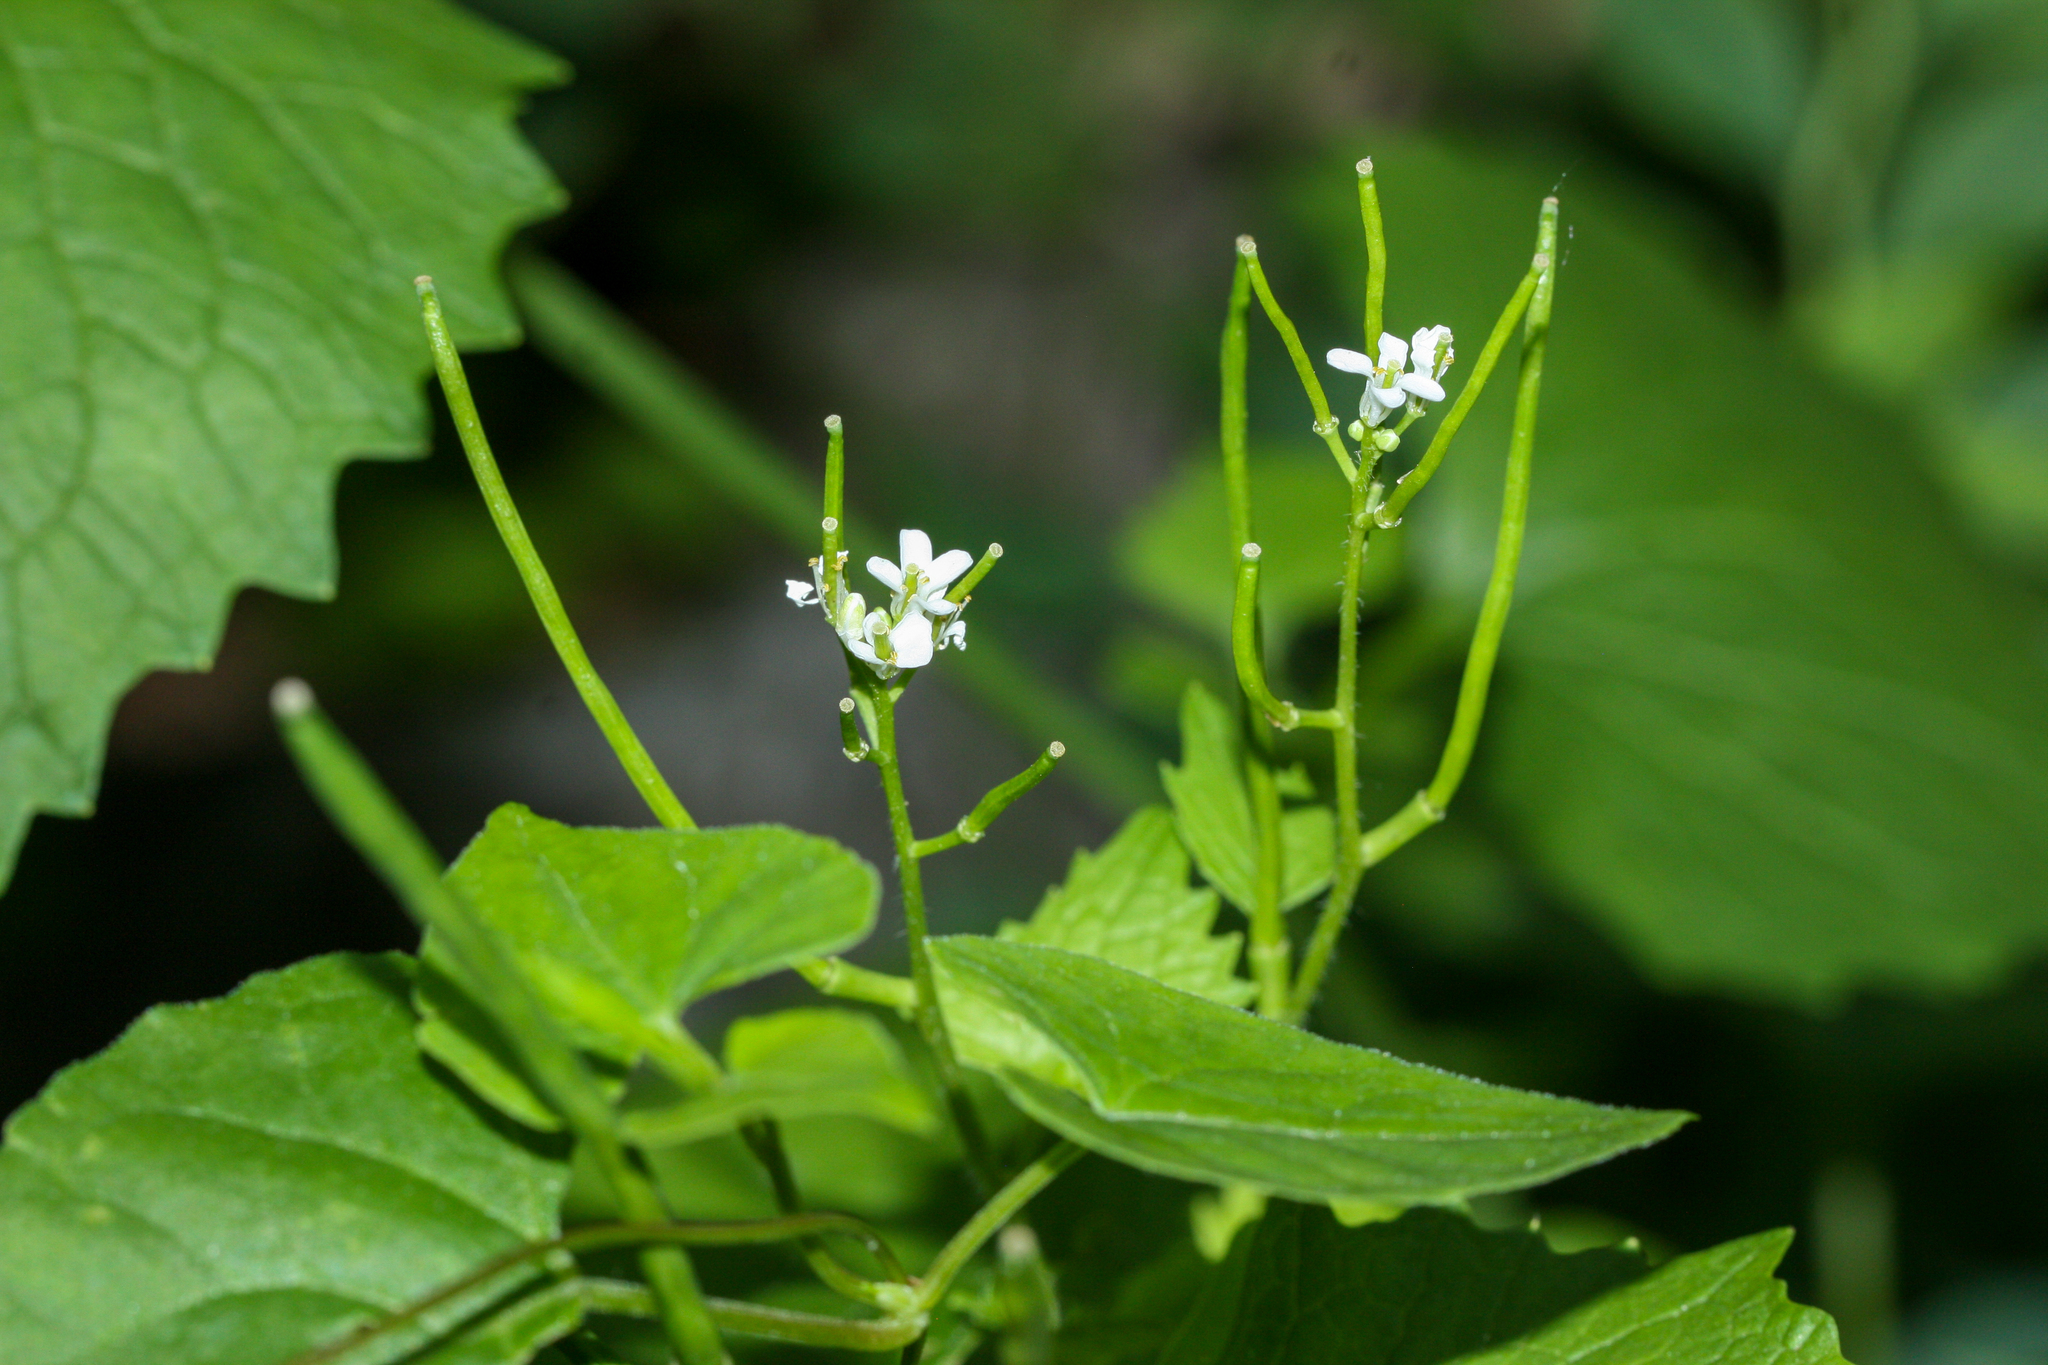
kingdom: Plantae
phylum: Tracheophyta
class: Magnoliopsida
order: Brassicales
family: Brassicaceae
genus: Alliaria
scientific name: Alliaria petiolata
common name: Garlic mustard
